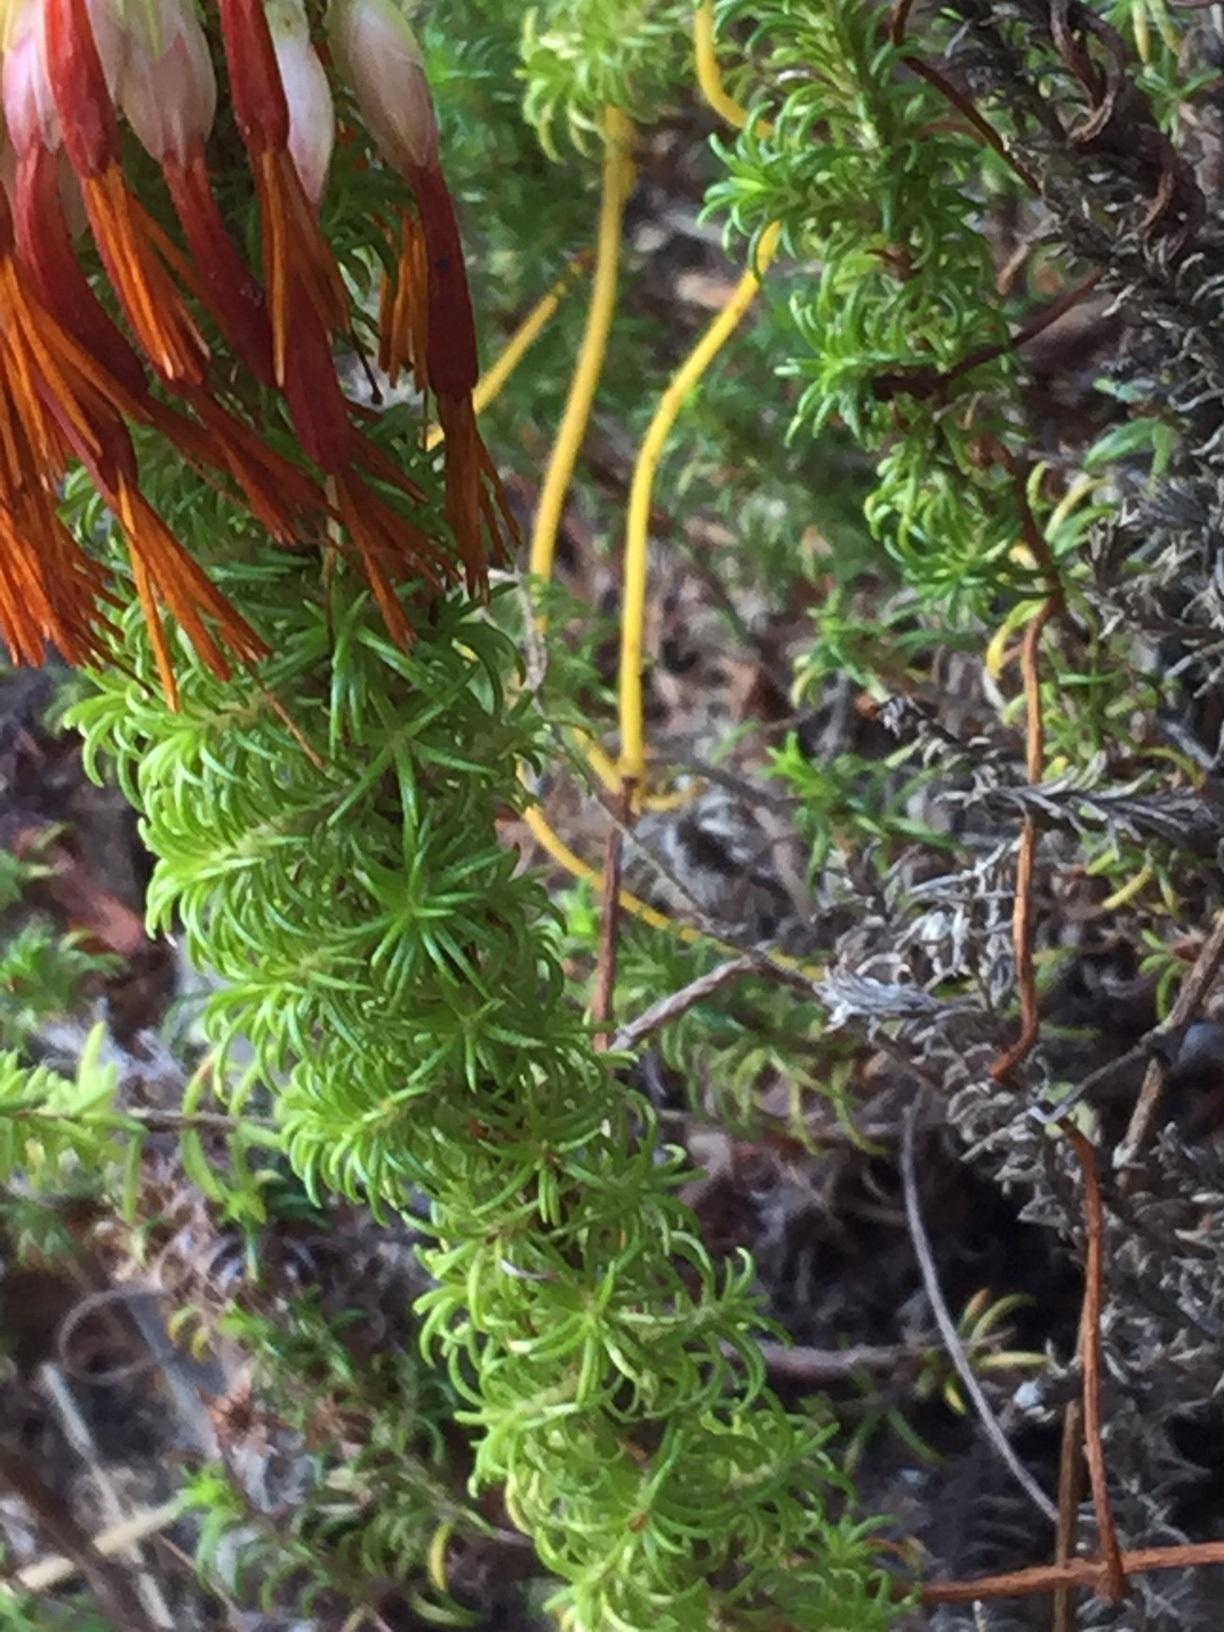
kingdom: Plantae
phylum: Tracheophyta
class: Magnoliopsida
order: Ericales
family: Ericaceae
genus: Erica
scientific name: Erica coccinea
